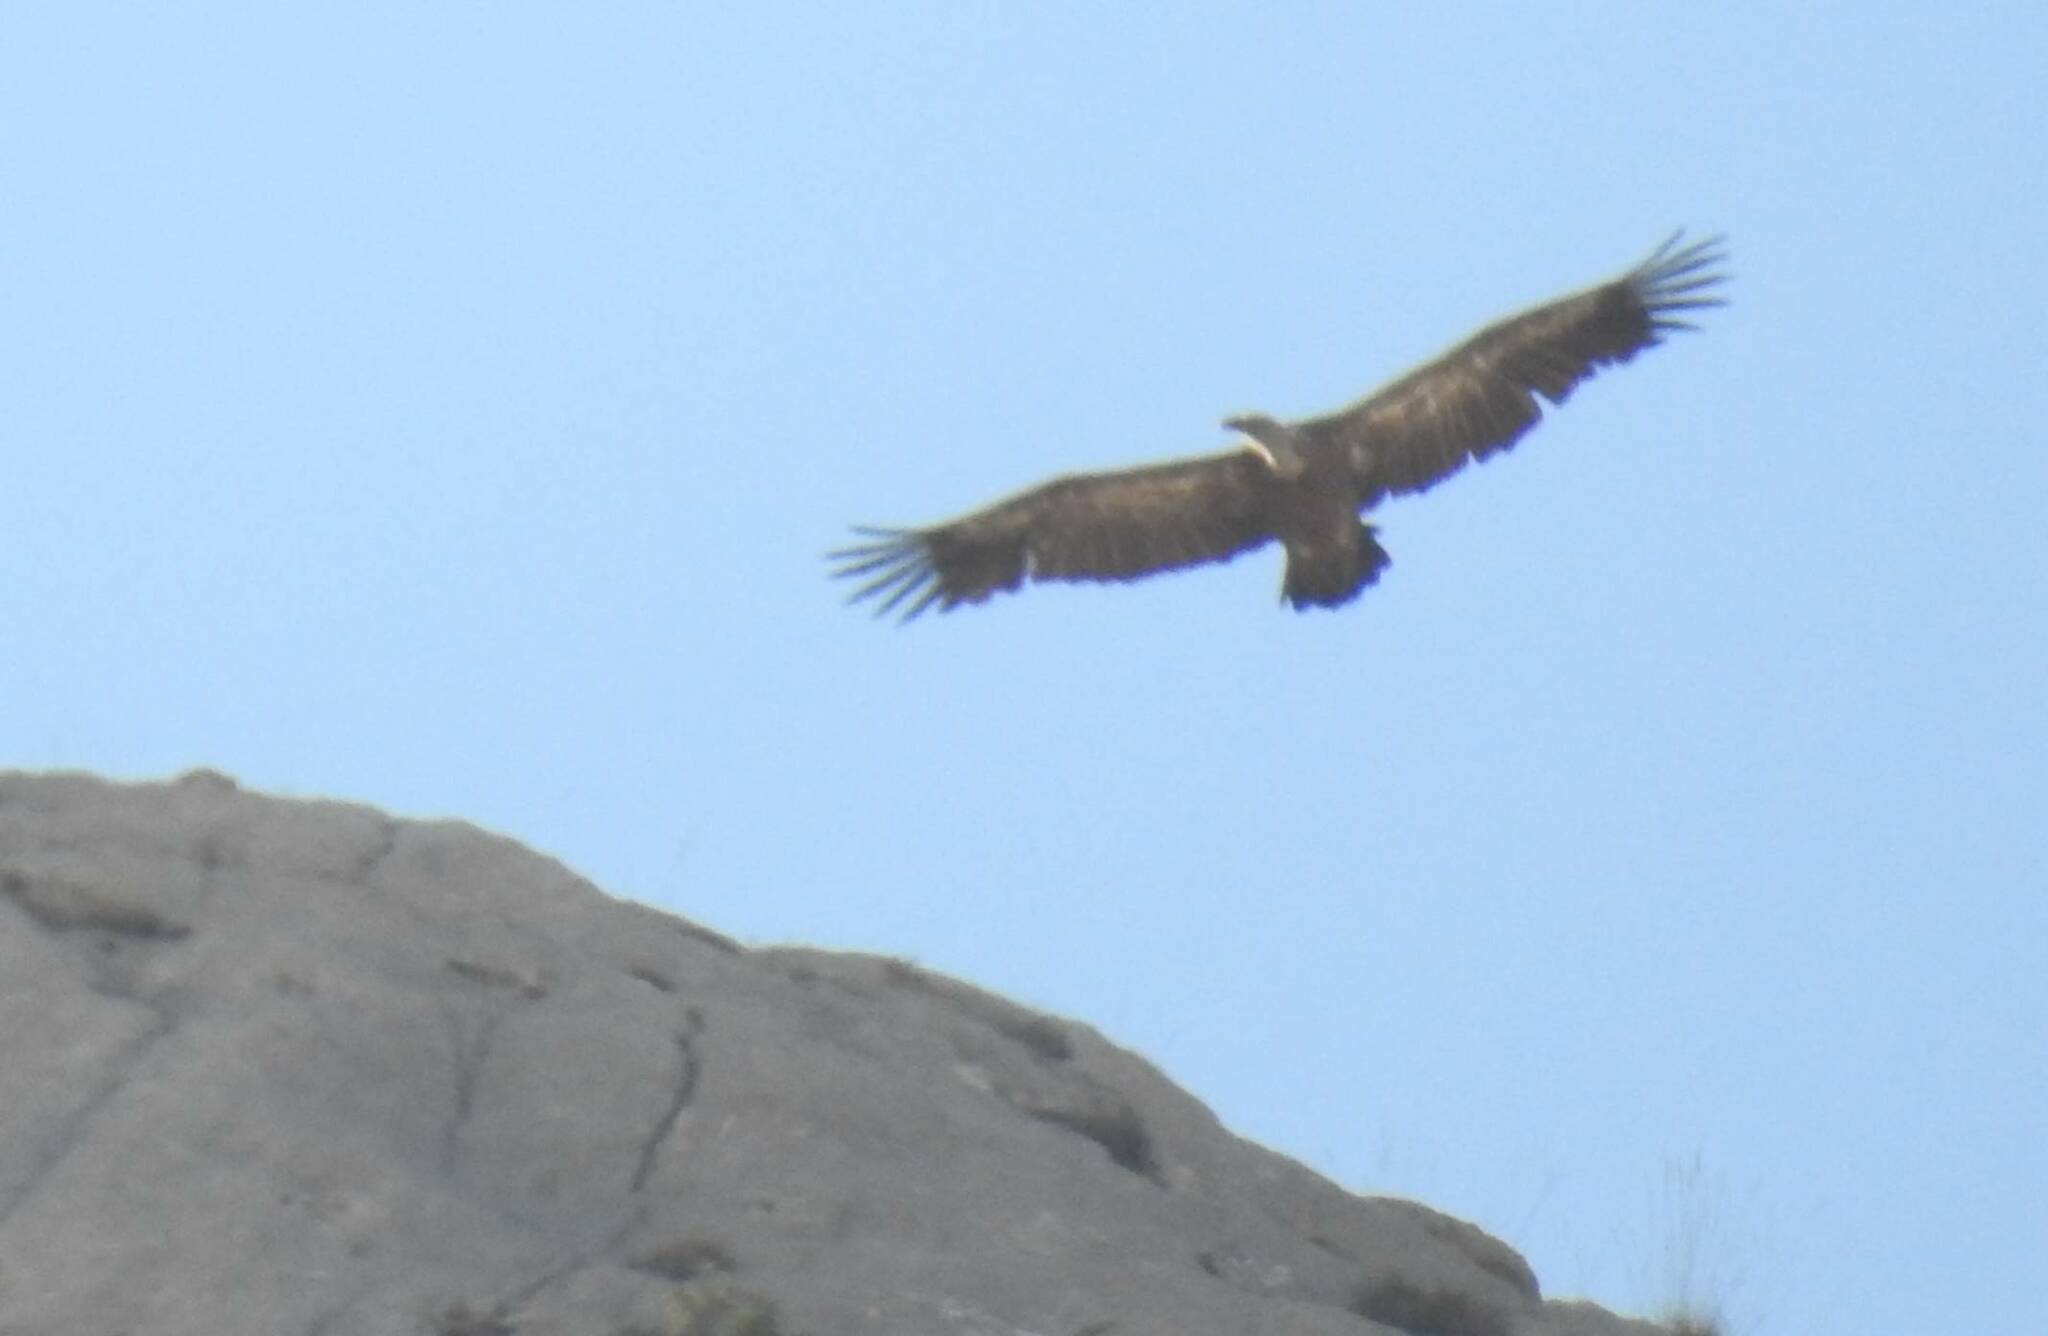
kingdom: Animalia
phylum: Chordata
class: Aves
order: Accipitriformes
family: Accipitridae
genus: Gyps
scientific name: Gyps fulvus
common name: Griffon vulture
